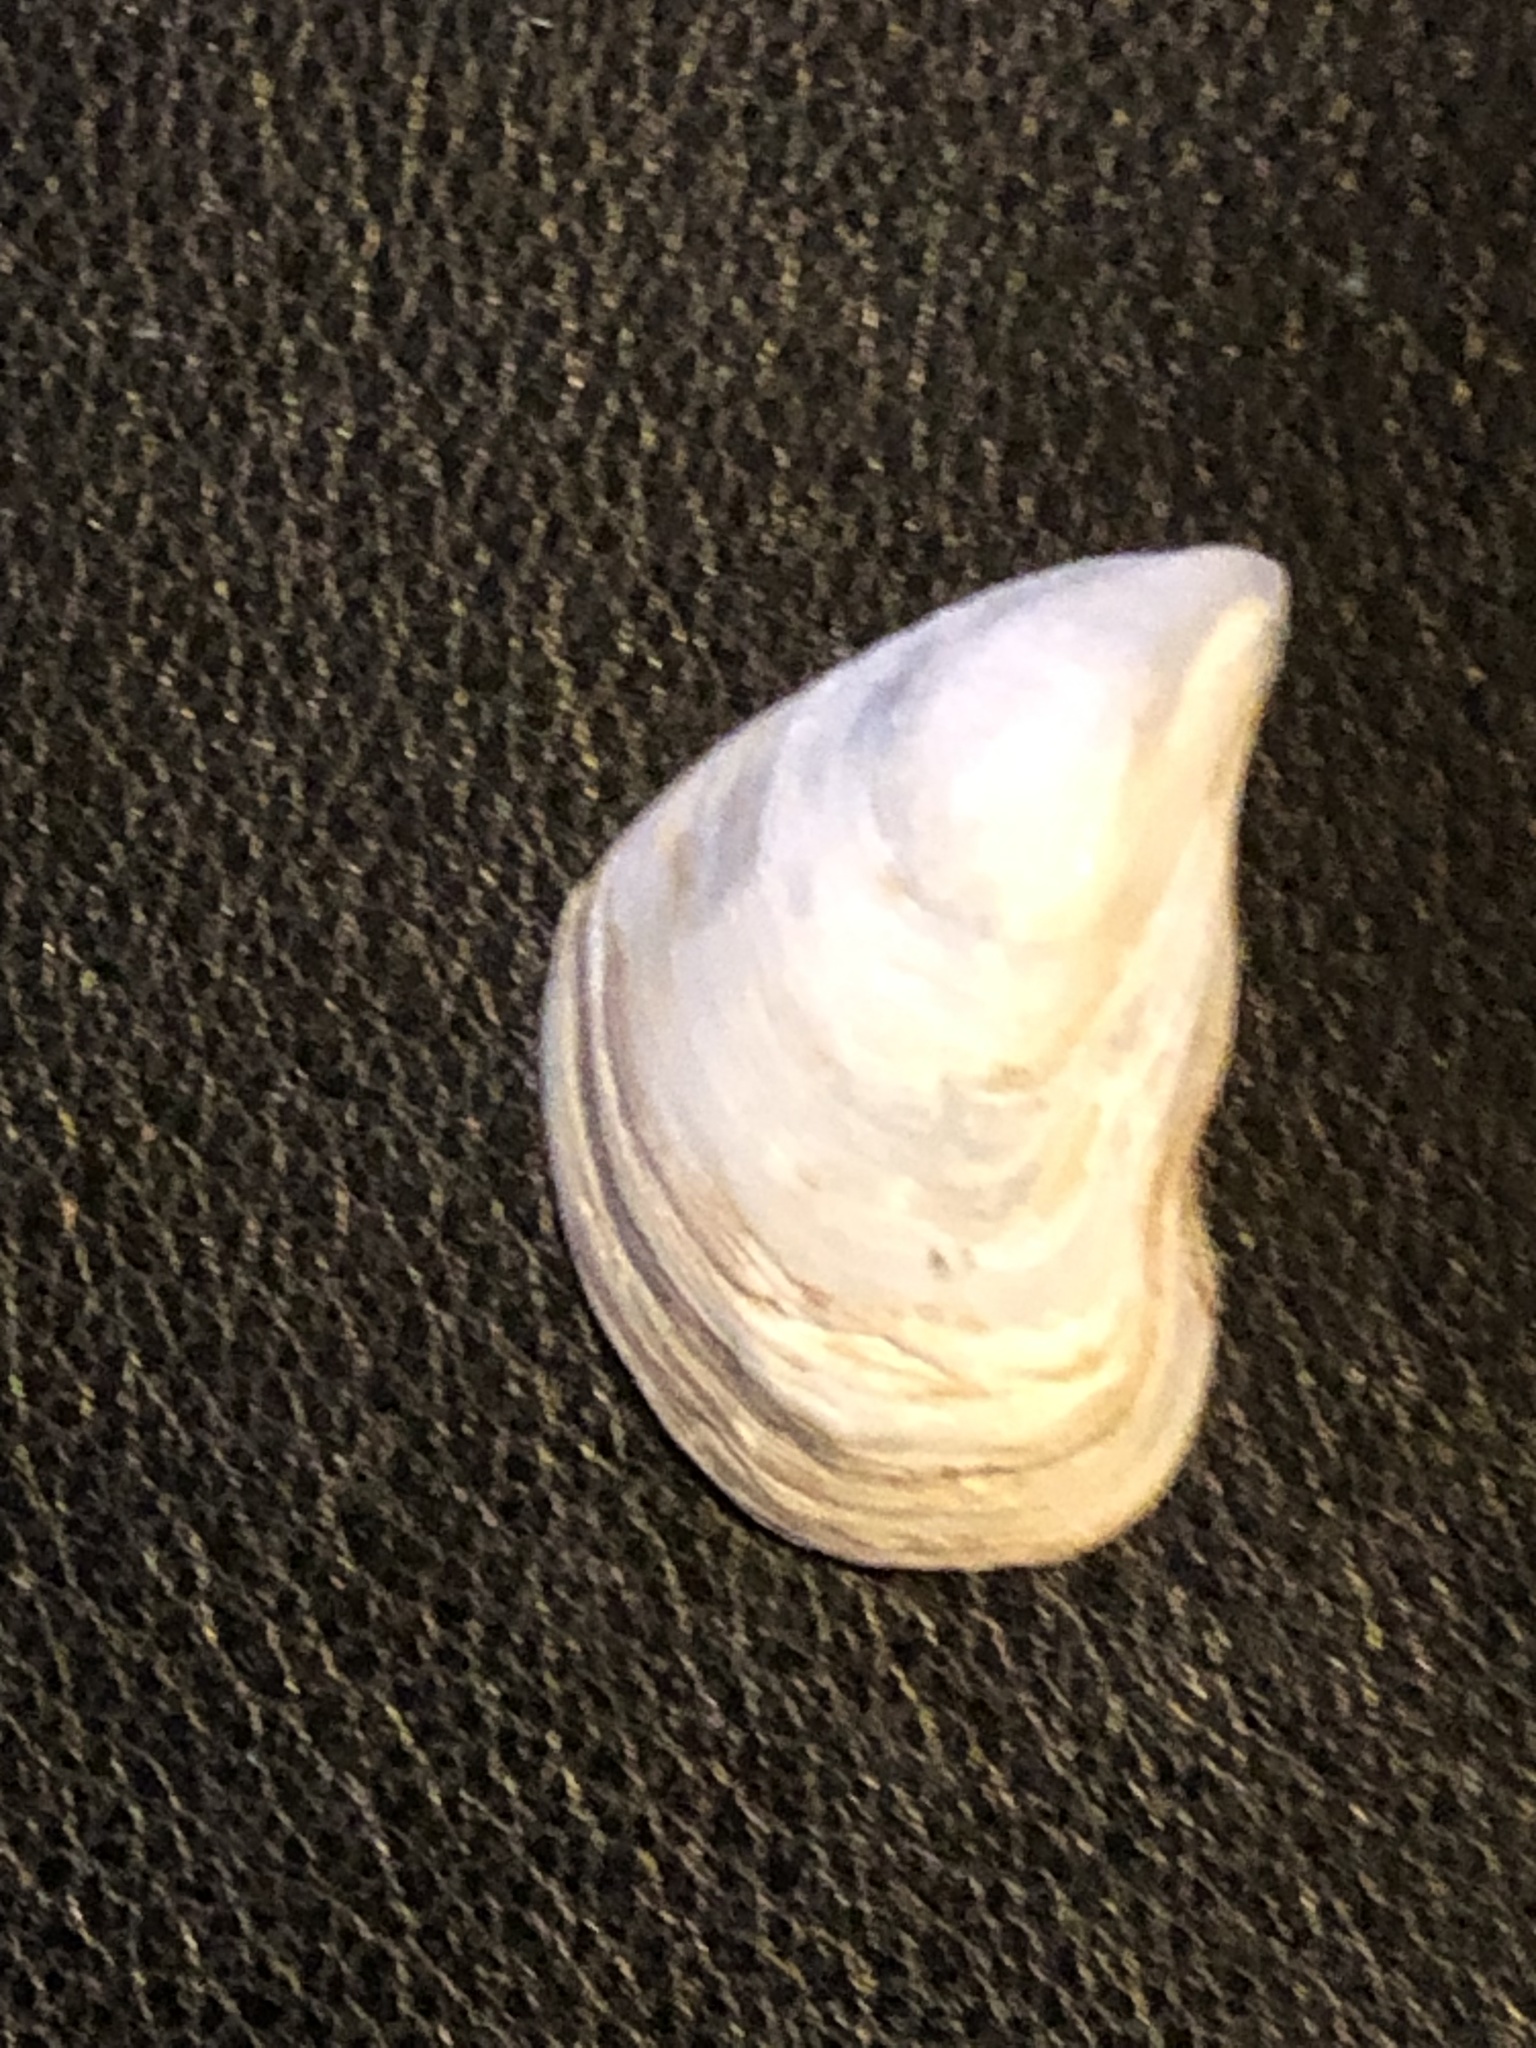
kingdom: Animalia
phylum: Mollusca
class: Bivalvia
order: Myida
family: Dreissenidae
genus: Dreissena
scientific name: Dreissena bugensis
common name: Quagga mussel
